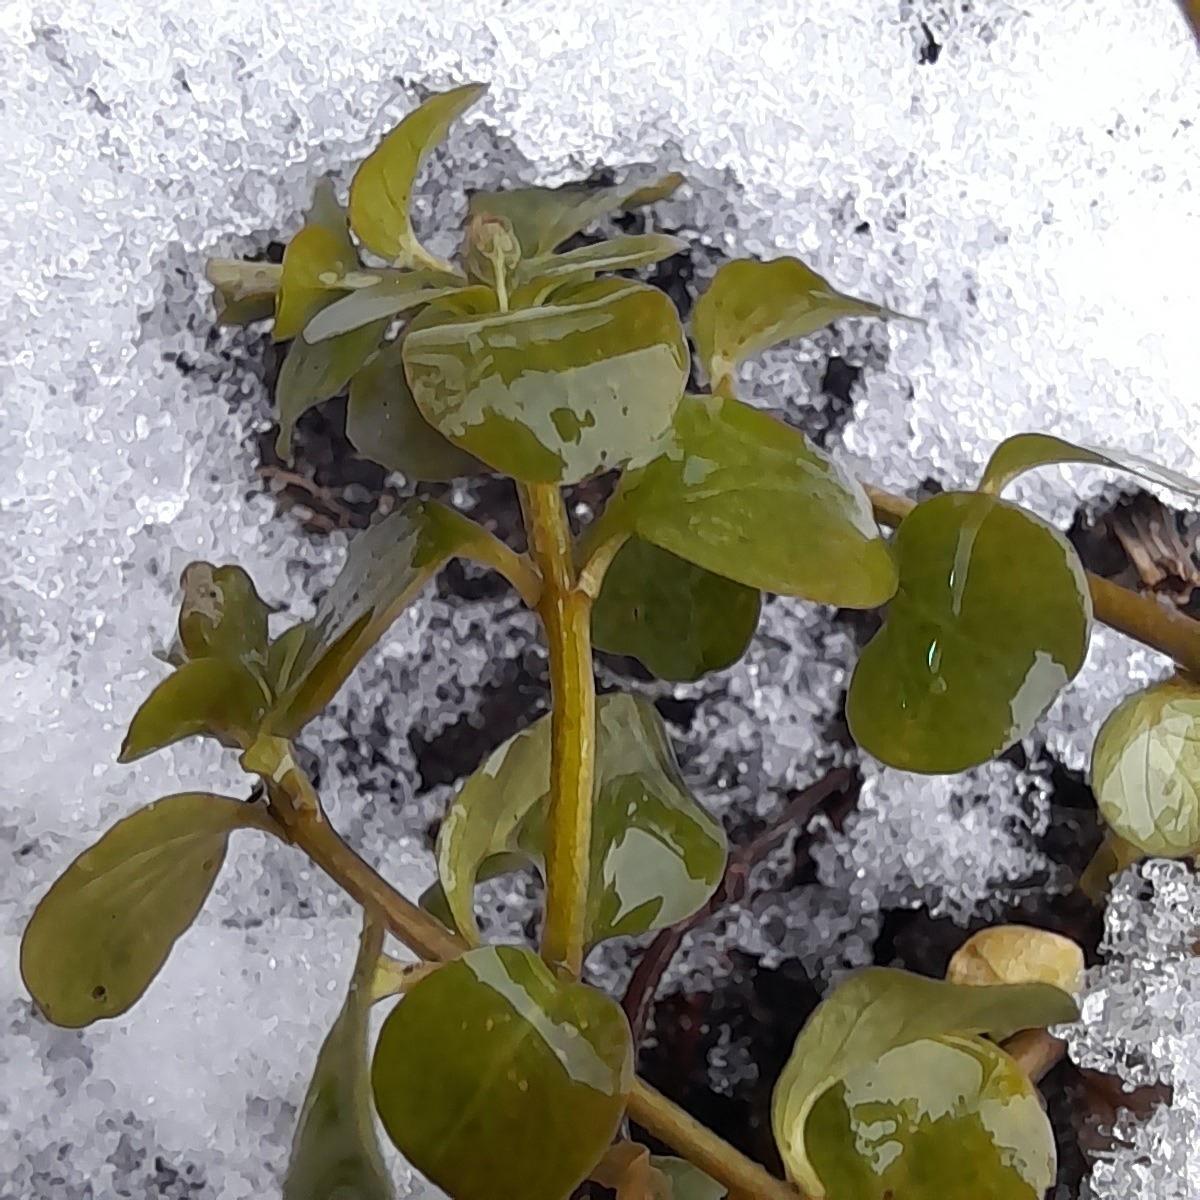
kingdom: Plantae
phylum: Tracheophyta
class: Magnoliopsida
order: Ericales
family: Primulaceae
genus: Lysimachia
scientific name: Lysimachia nummularia
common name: Moneywort
